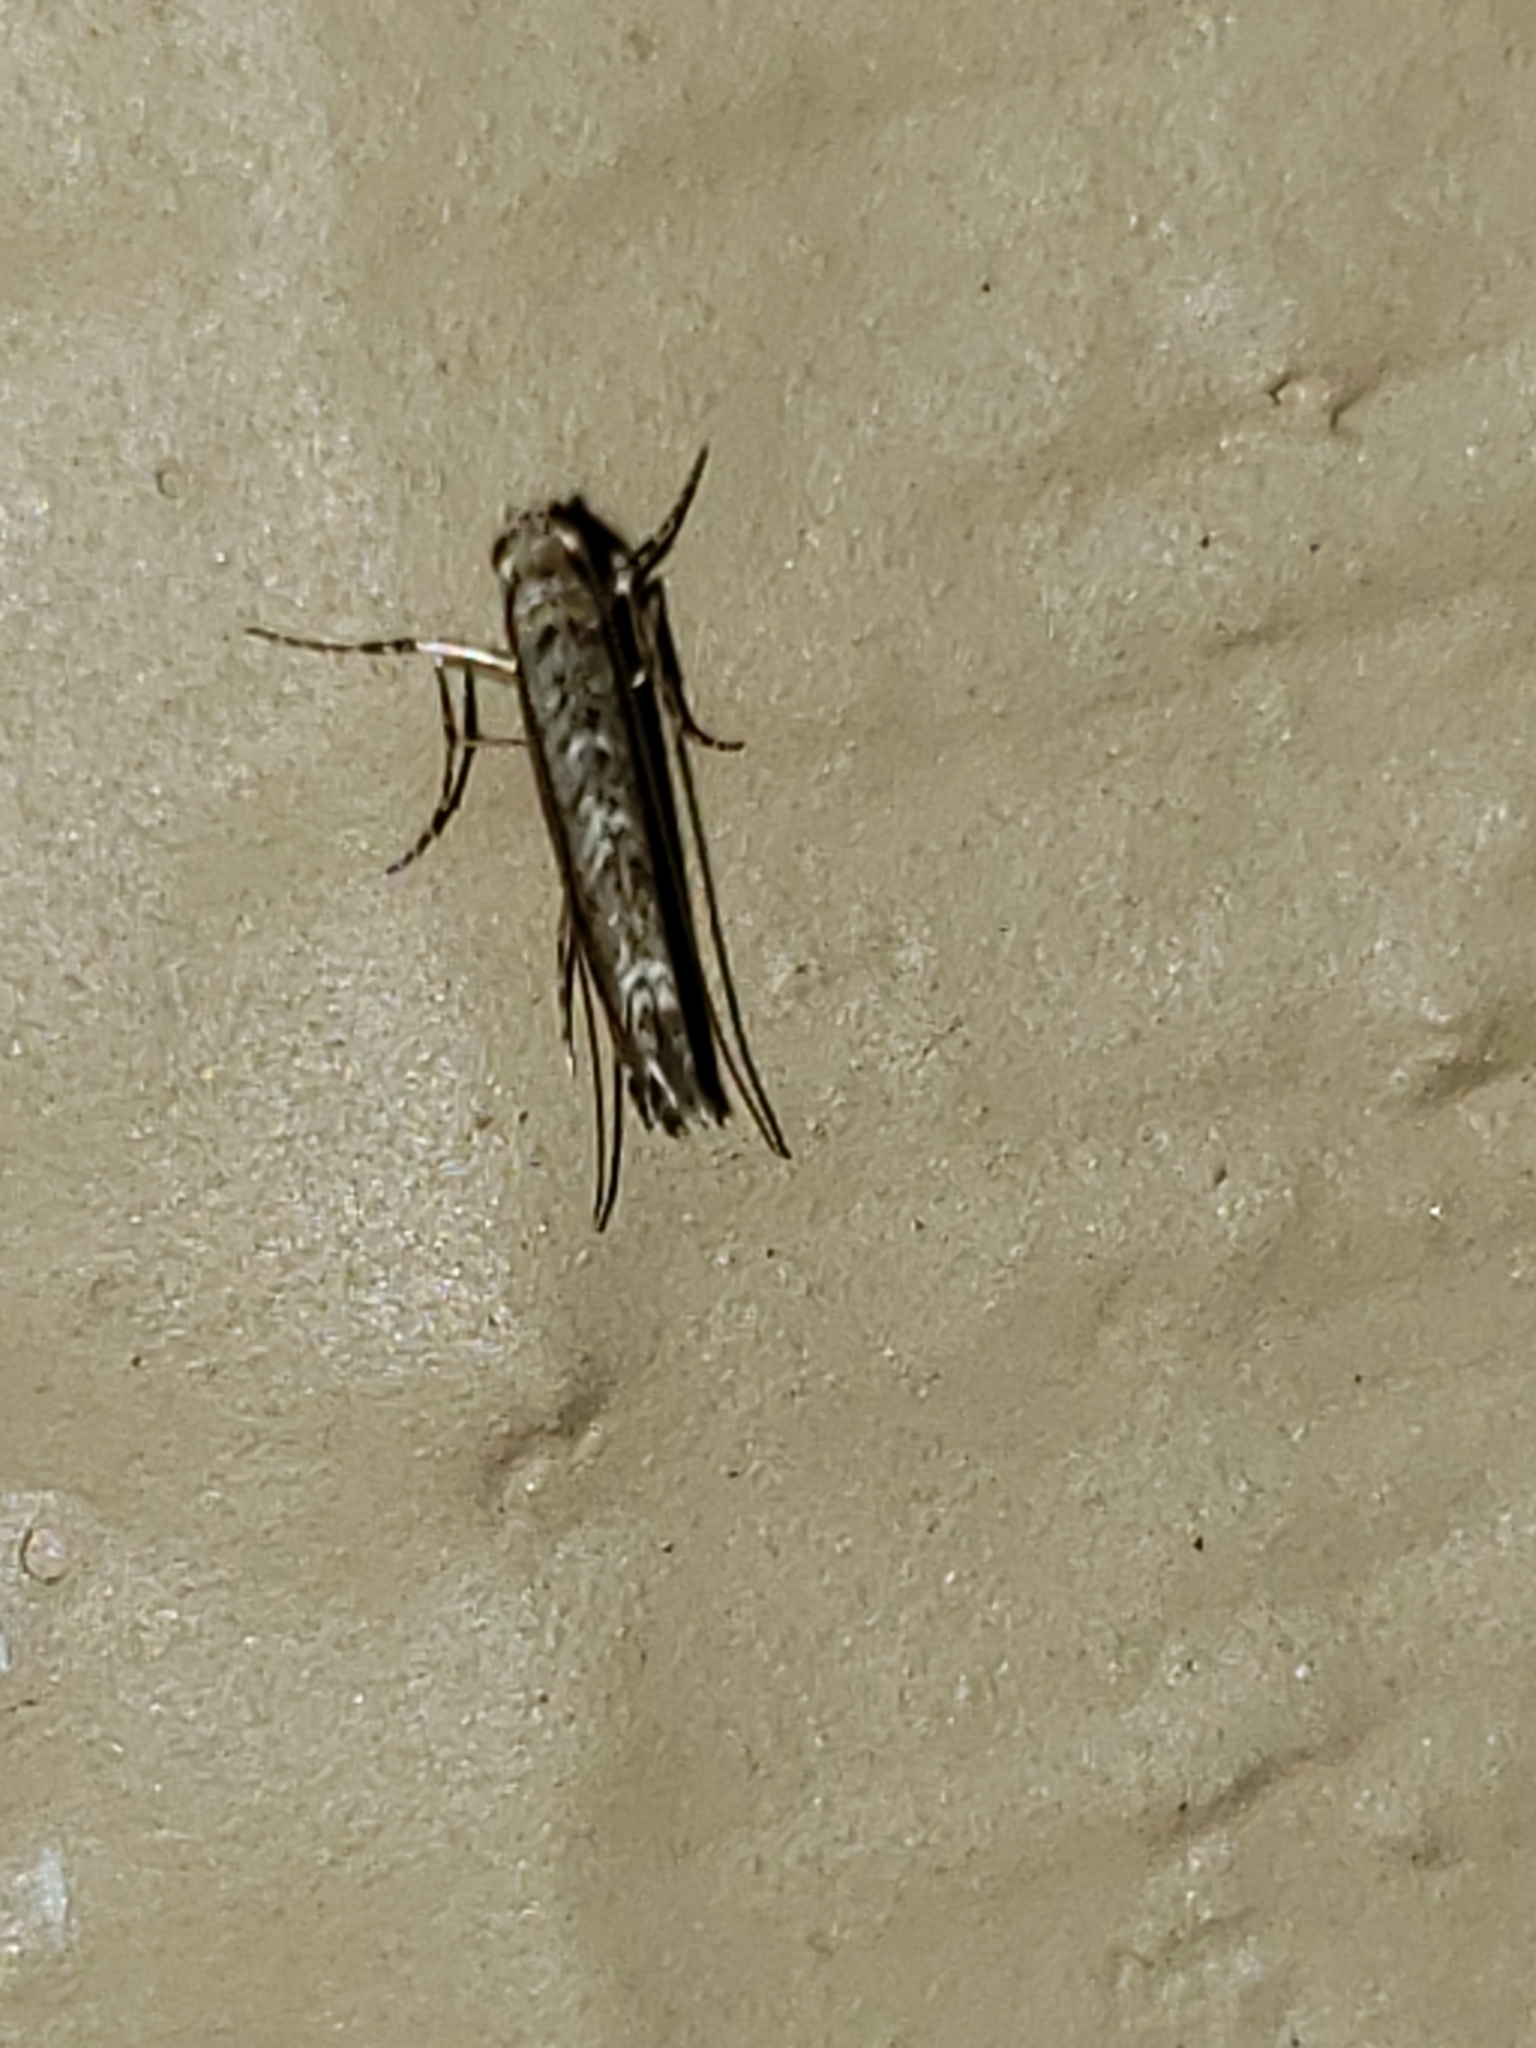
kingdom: Animalia
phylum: Arthropoda
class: Insecta
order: Lepidoptera
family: Gracillariidae
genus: Neurobathra
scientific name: Neurobathra strigifinitella
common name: Finite-channeled leafminer moth
